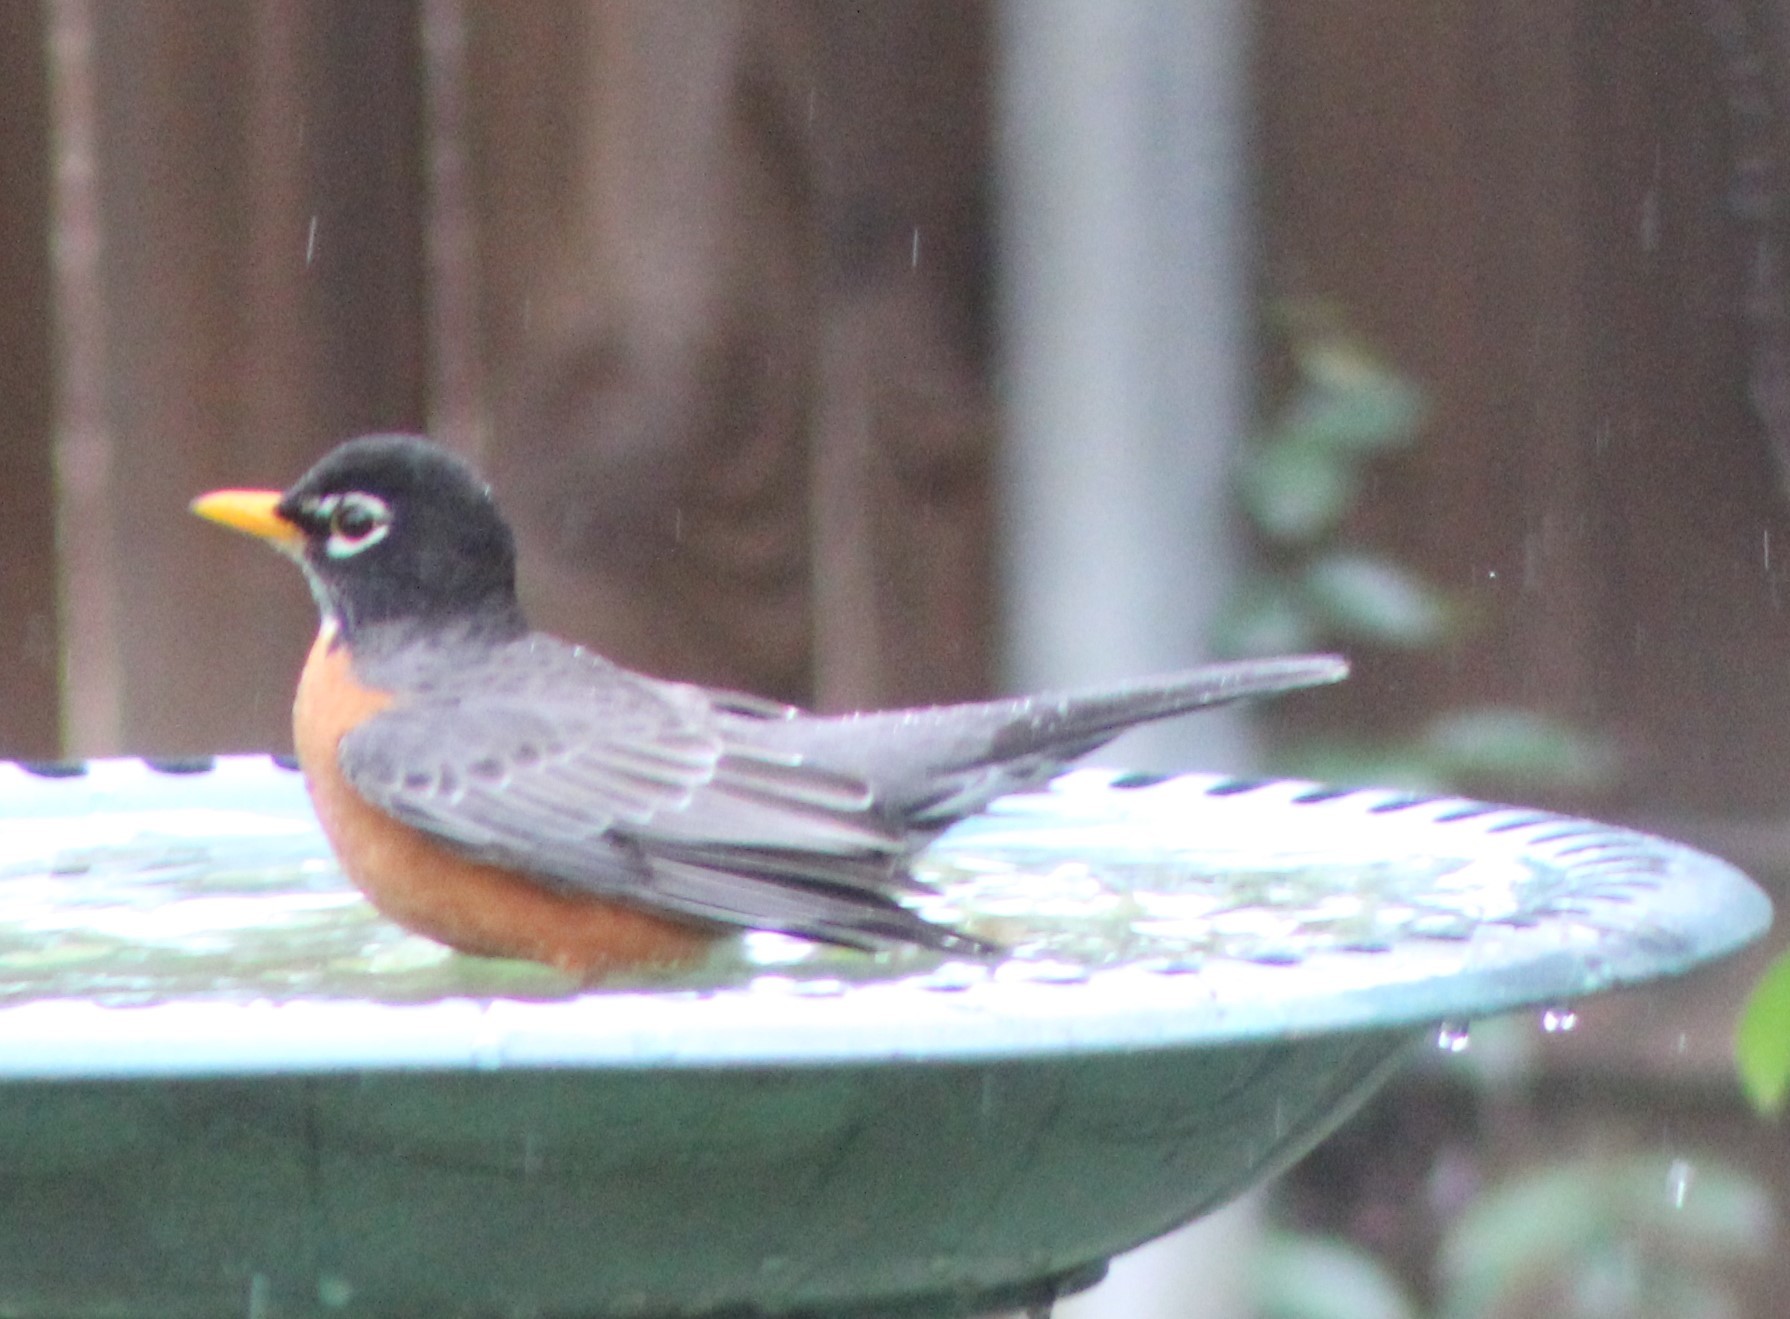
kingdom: Animalia
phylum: Chordata
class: Aves
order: Passeriformes
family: Turdidae
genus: Turdus
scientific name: Turdus migratorius
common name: American robin
